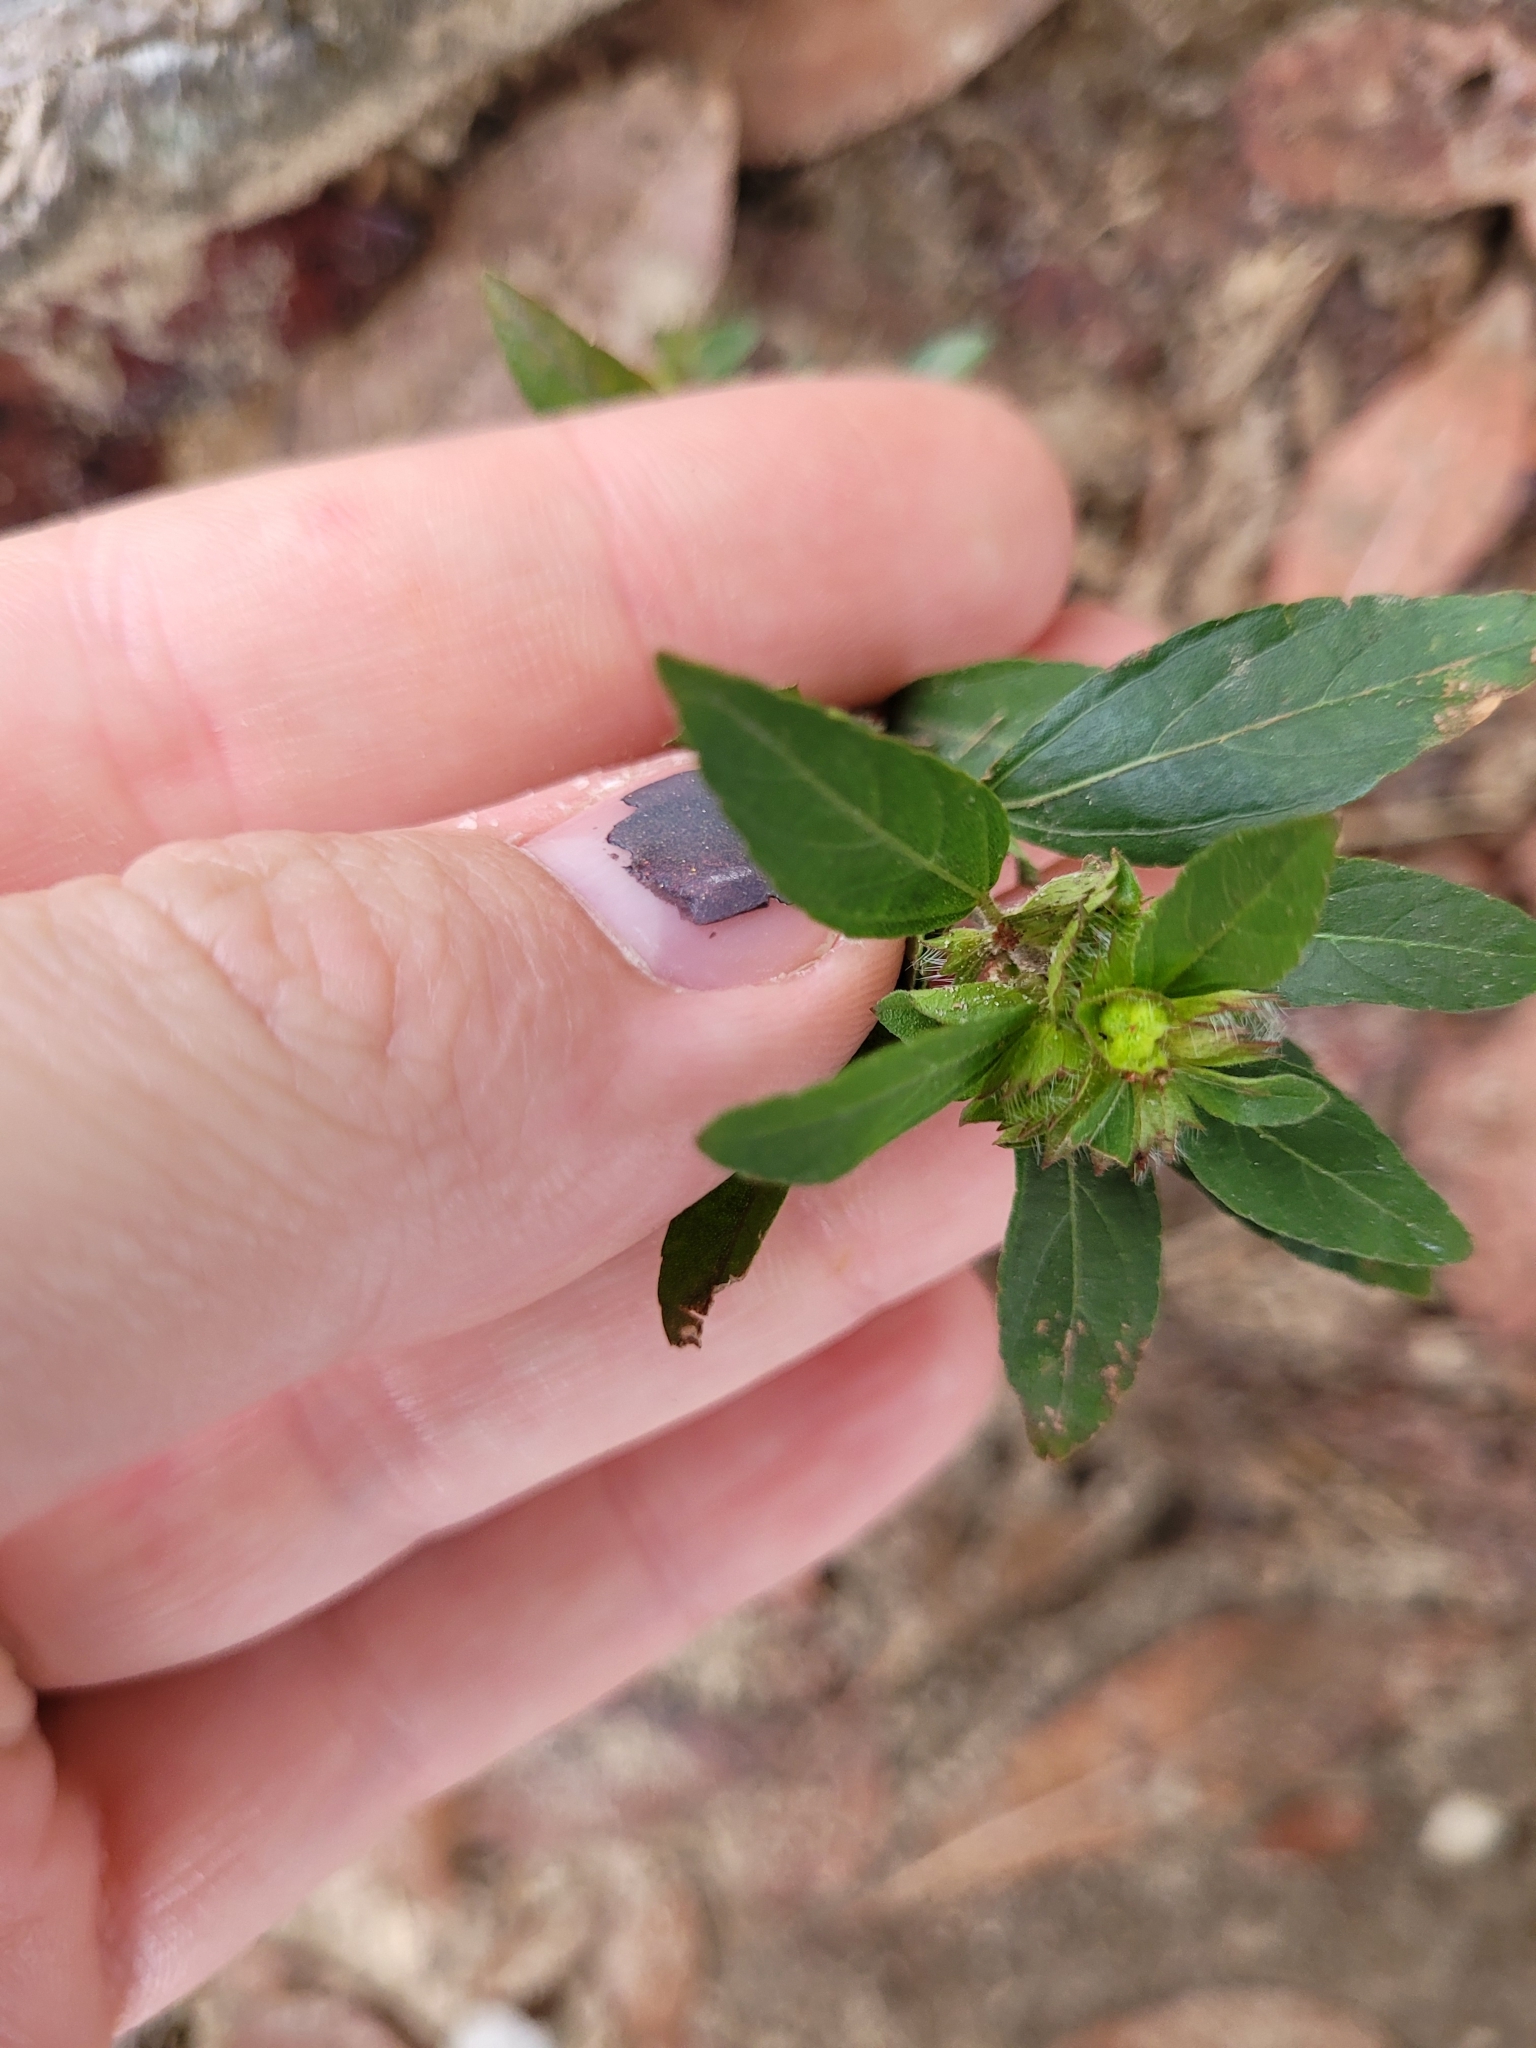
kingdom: Plantae
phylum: Tracheophyta
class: Magnoliopsida
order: Malpighiales
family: Euphorbiaceae
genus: Acalypha
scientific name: Acalypha gracilens
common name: Slender three-seeded mercury
